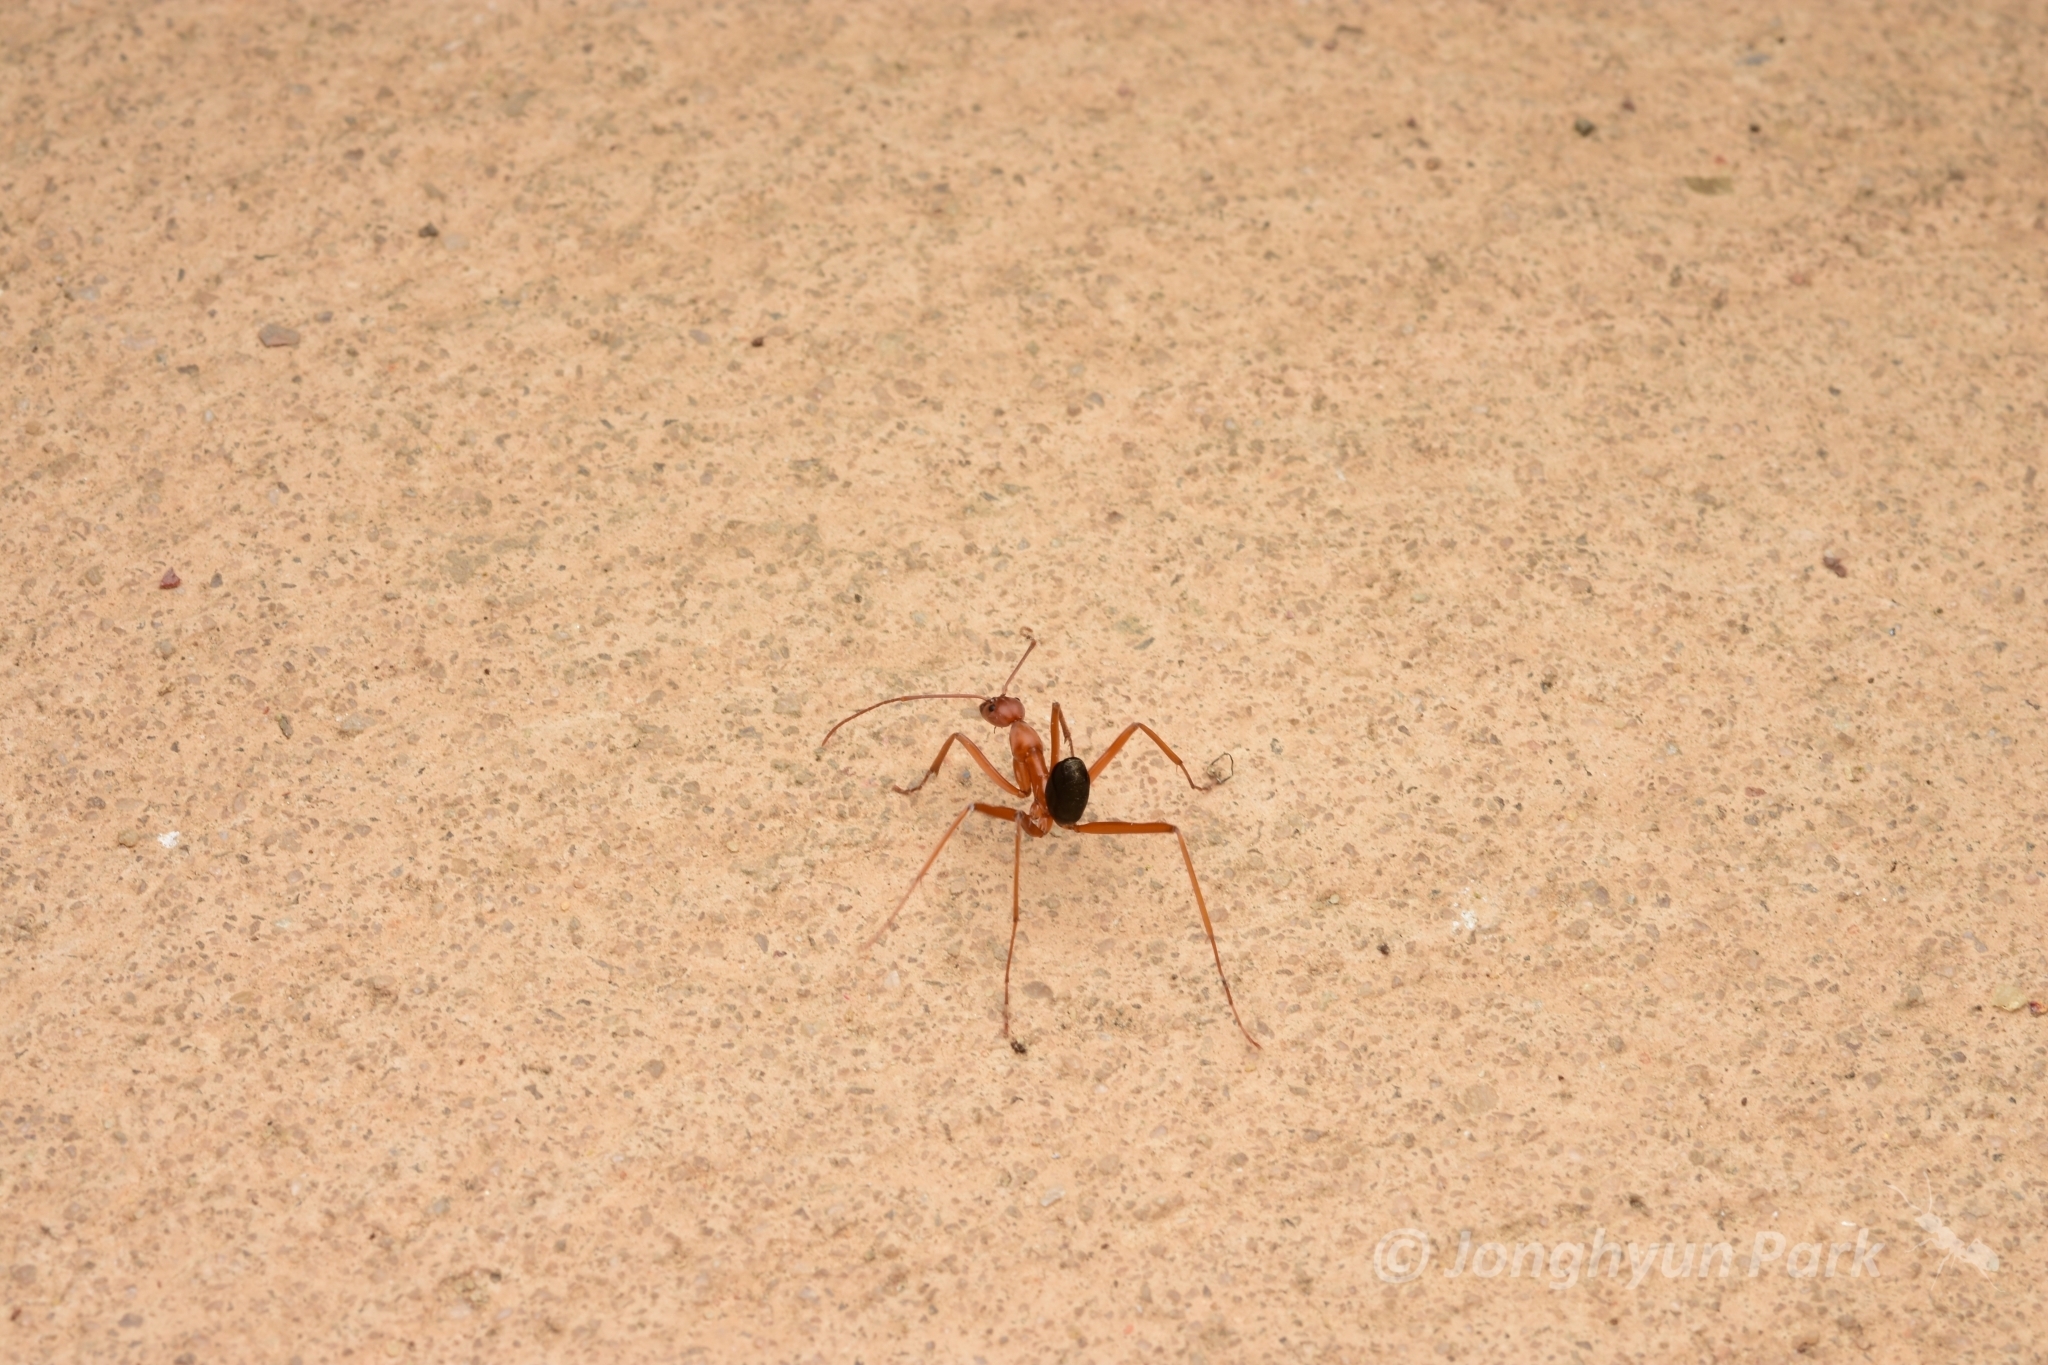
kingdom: Animalia
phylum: Arthropoda
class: Insecta
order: Hymenoptera
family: Formicidae
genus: Leptomyrmex
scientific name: Leptomyrmex nigriventris
